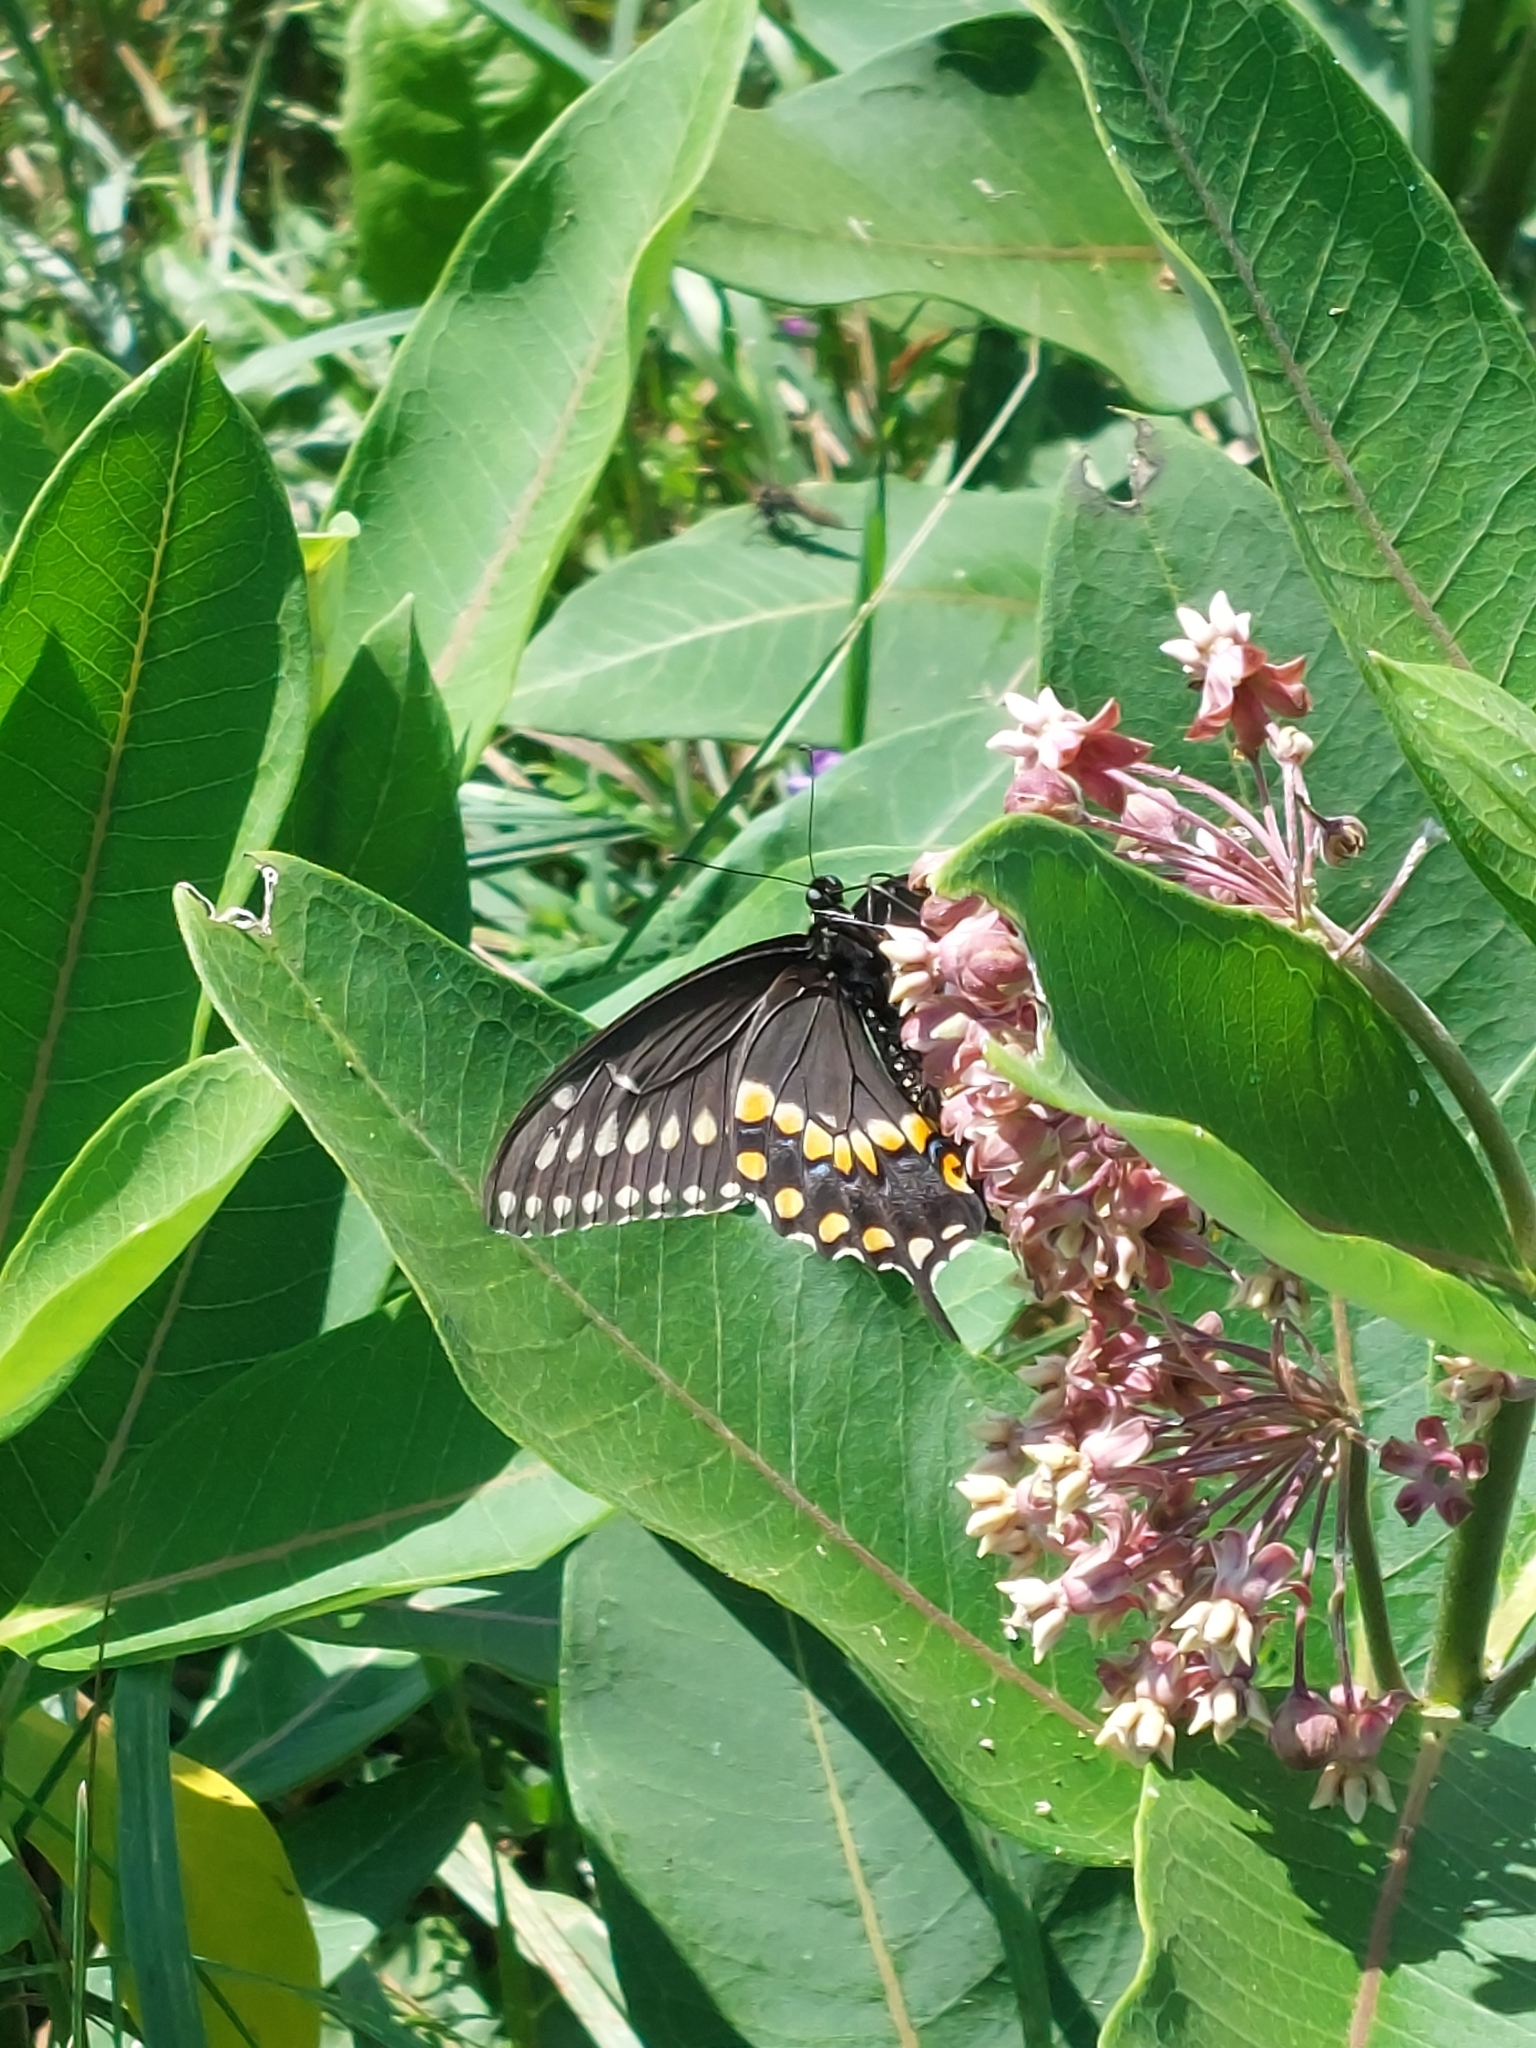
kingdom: Animalia
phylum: Arthropoda
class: Insecta
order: Lepidoptera
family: Papilionidae
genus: Papilio
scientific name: Papilio polyxenes
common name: Black swallowtail
